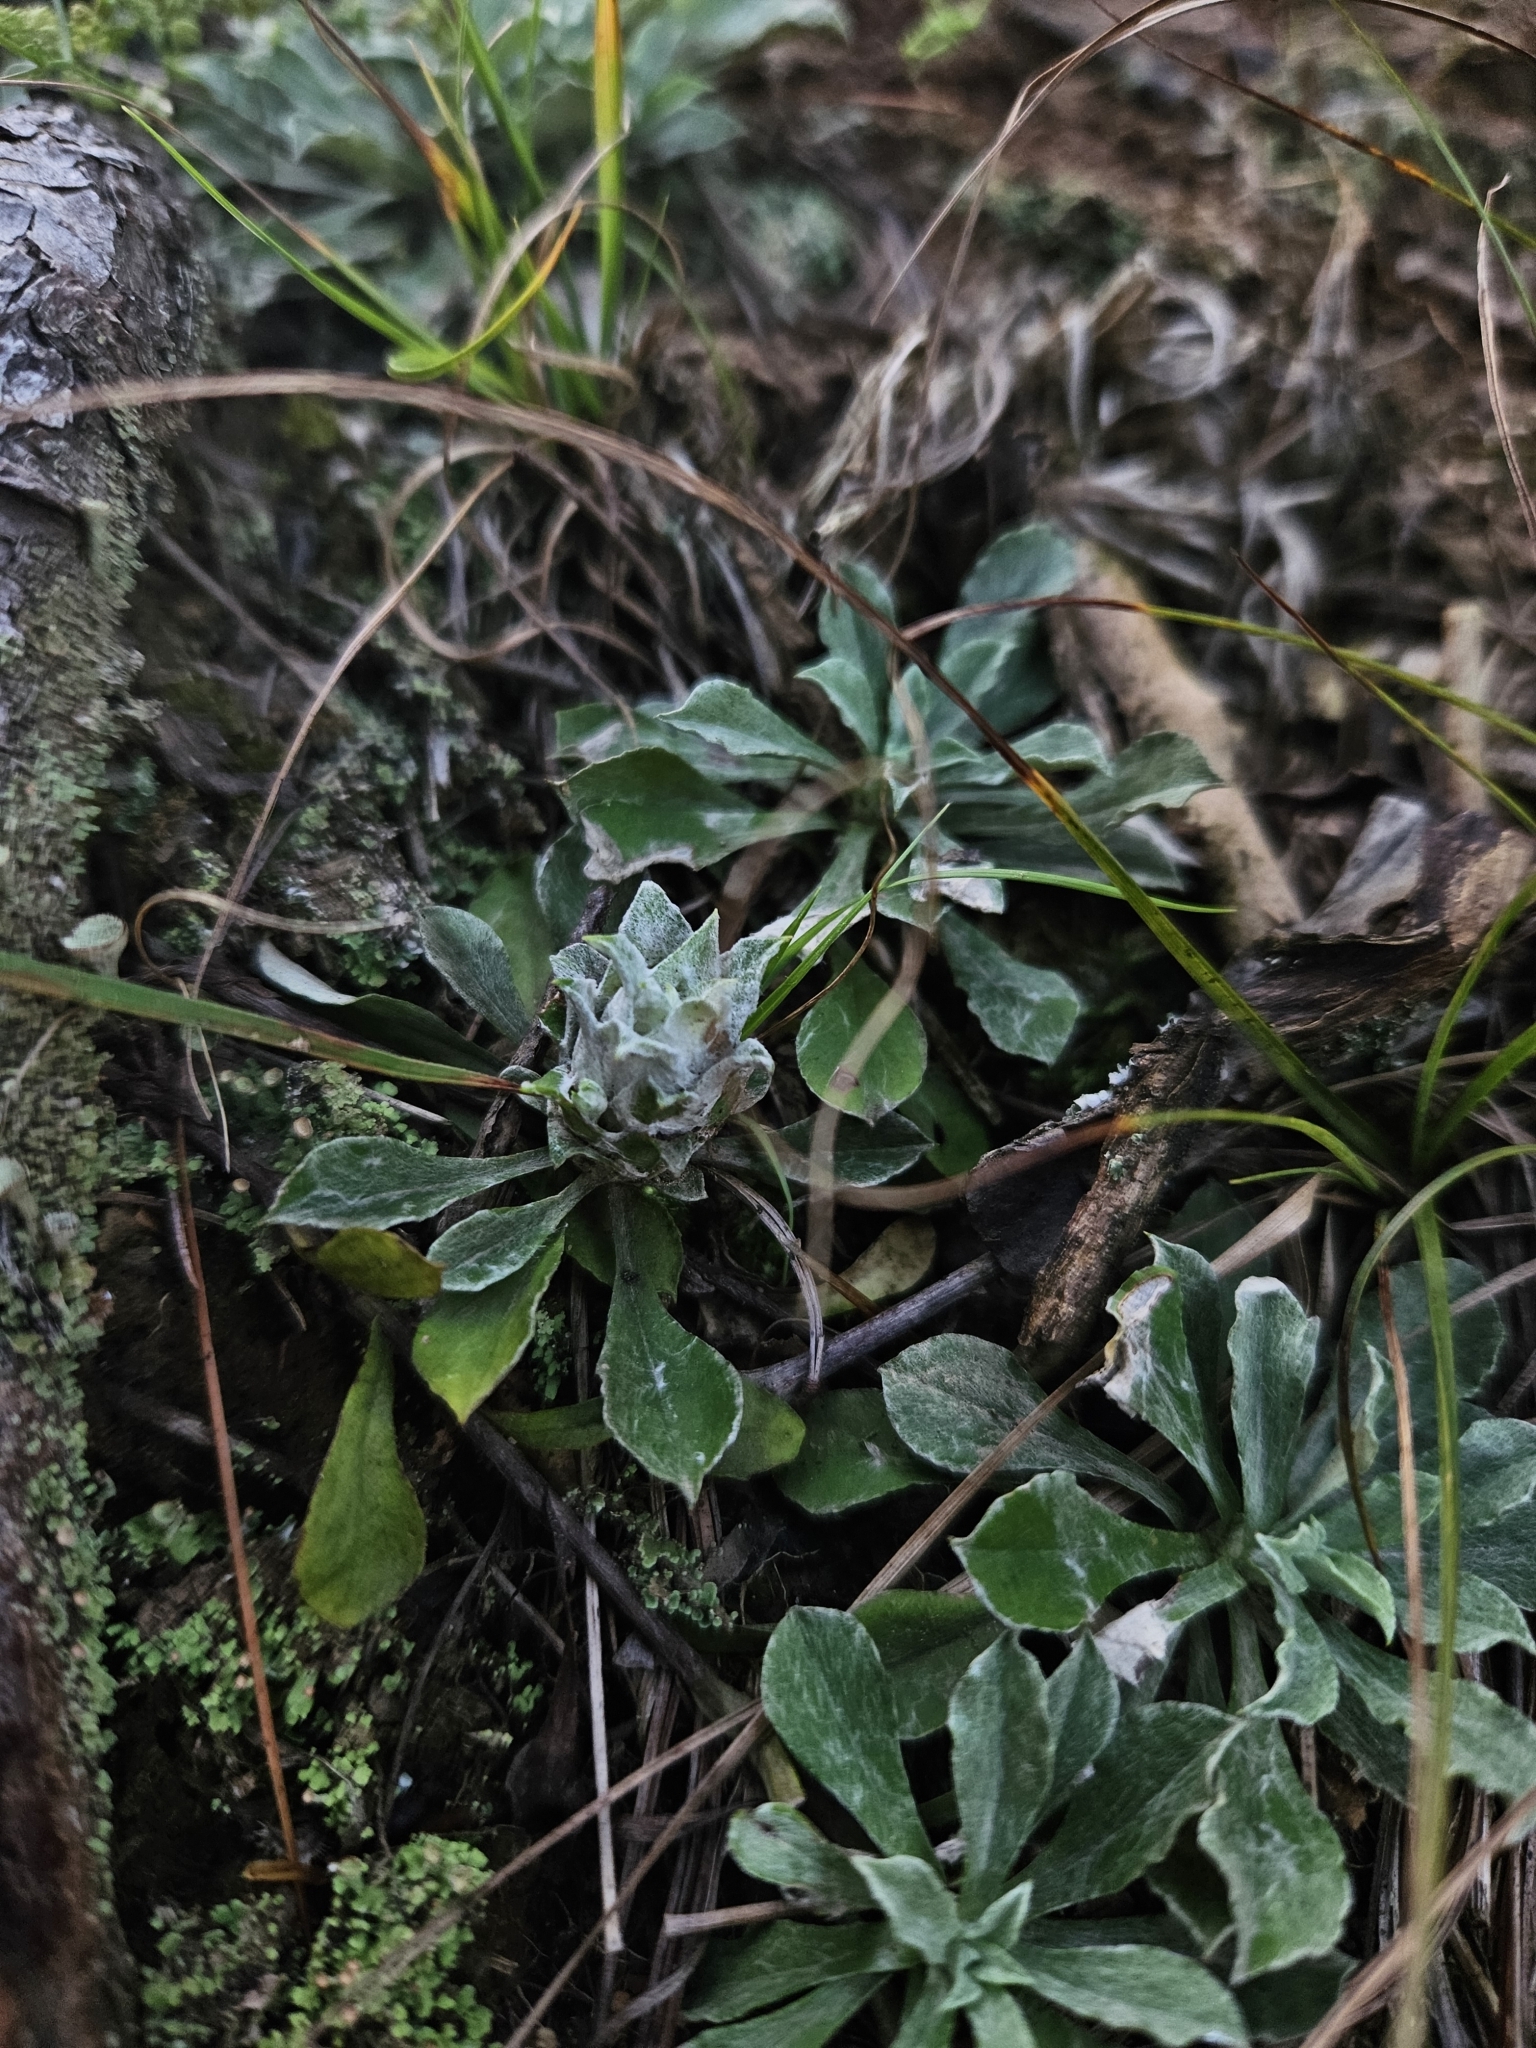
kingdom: Plantae
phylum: Tracheophyta
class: Magnoliopsida
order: Asterales
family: Asteraceae
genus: Antennaria
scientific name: Antennaria howellii
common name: Howell's pussytoes
